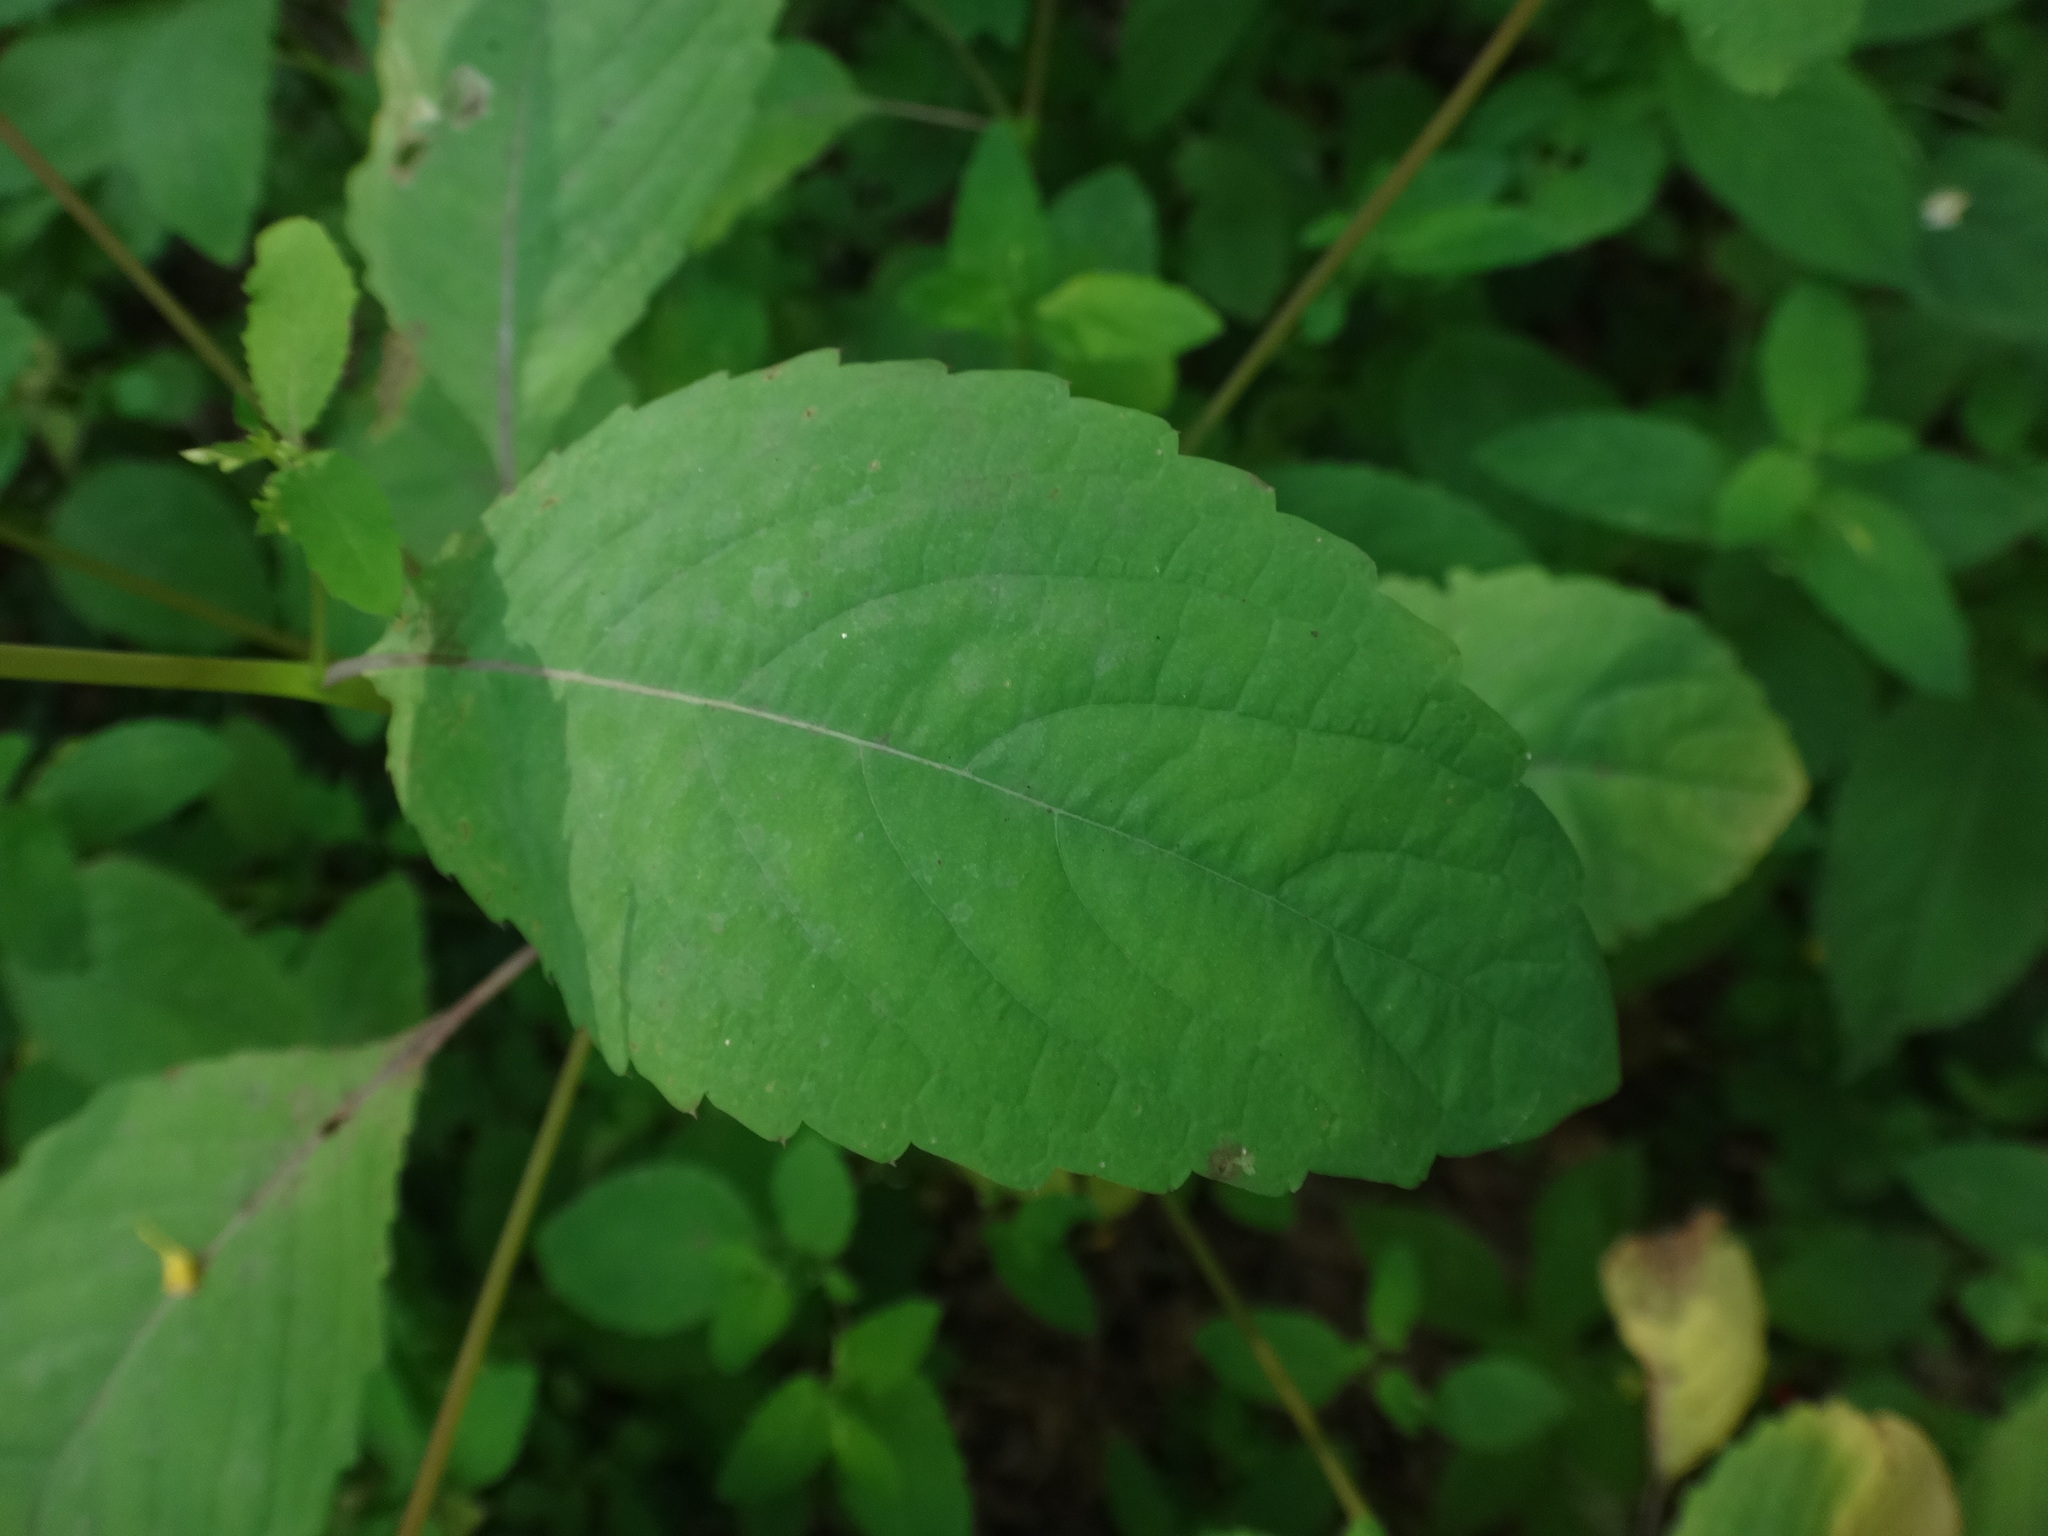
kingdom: Plantae
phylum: Tracheophyta
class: Magnoliopsida
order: Ericales
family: Balsaminaceae
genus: Impatiens
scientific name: Impatiens noli-tangere
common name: Touch-me-not balsam
